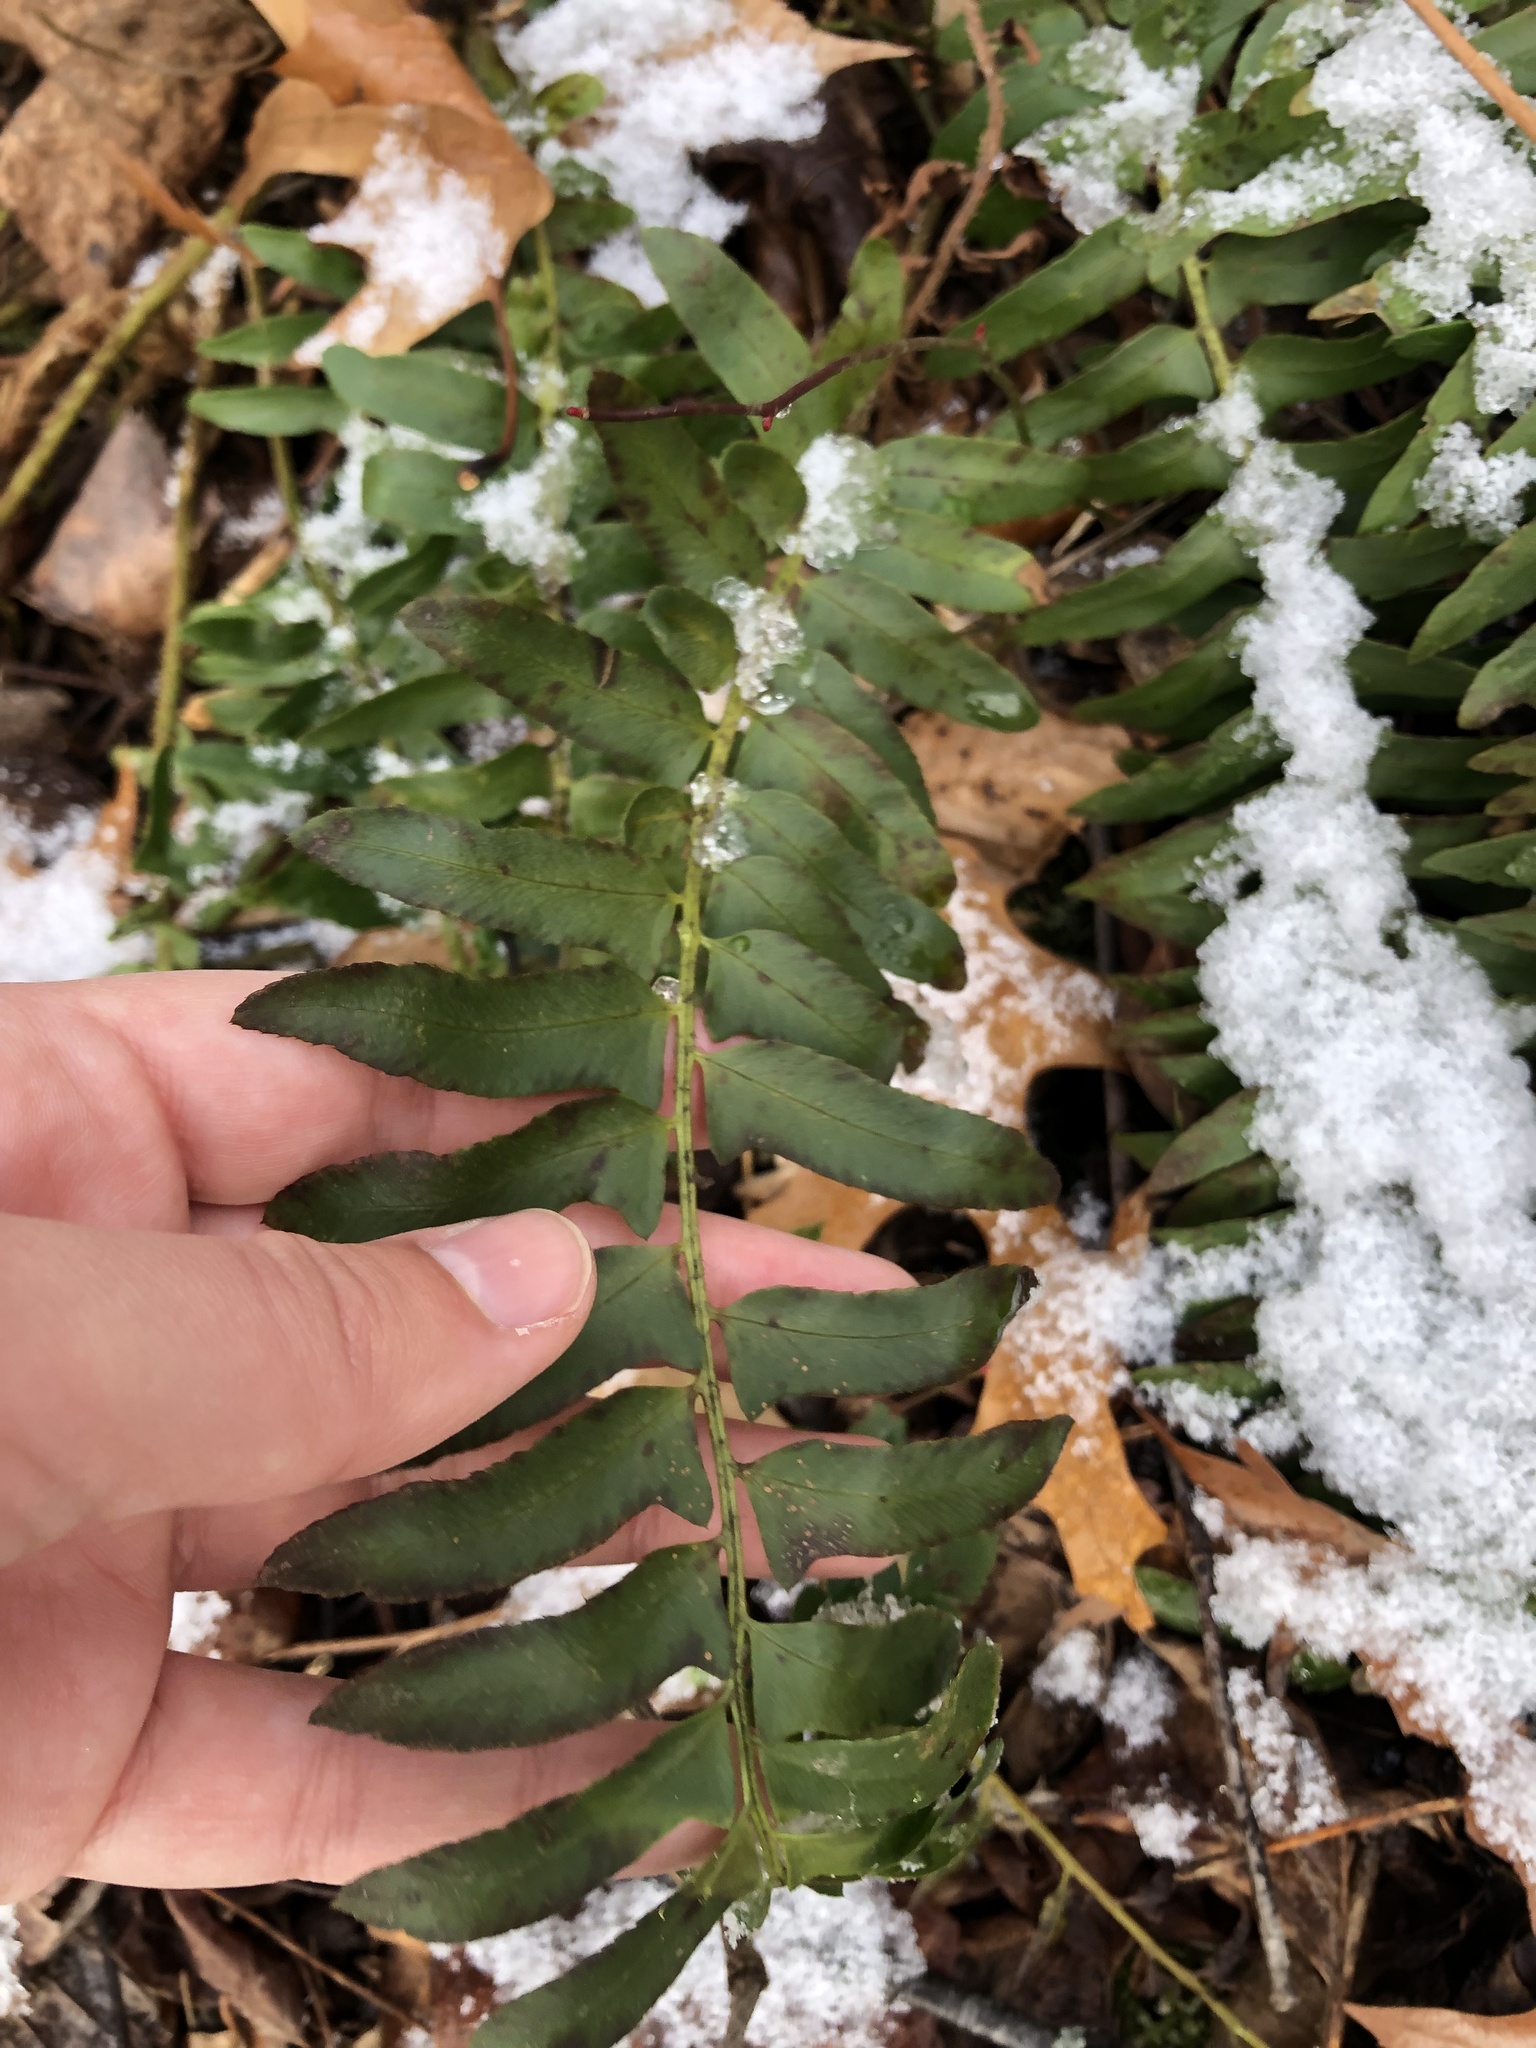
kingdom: Plantae
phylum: Tracheophyta
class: Polypodiopsida
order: Polypodiales
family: Dryopteridaceae
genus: Polystichum
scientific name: Polystichum acrostichoides
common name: Christmas fern
